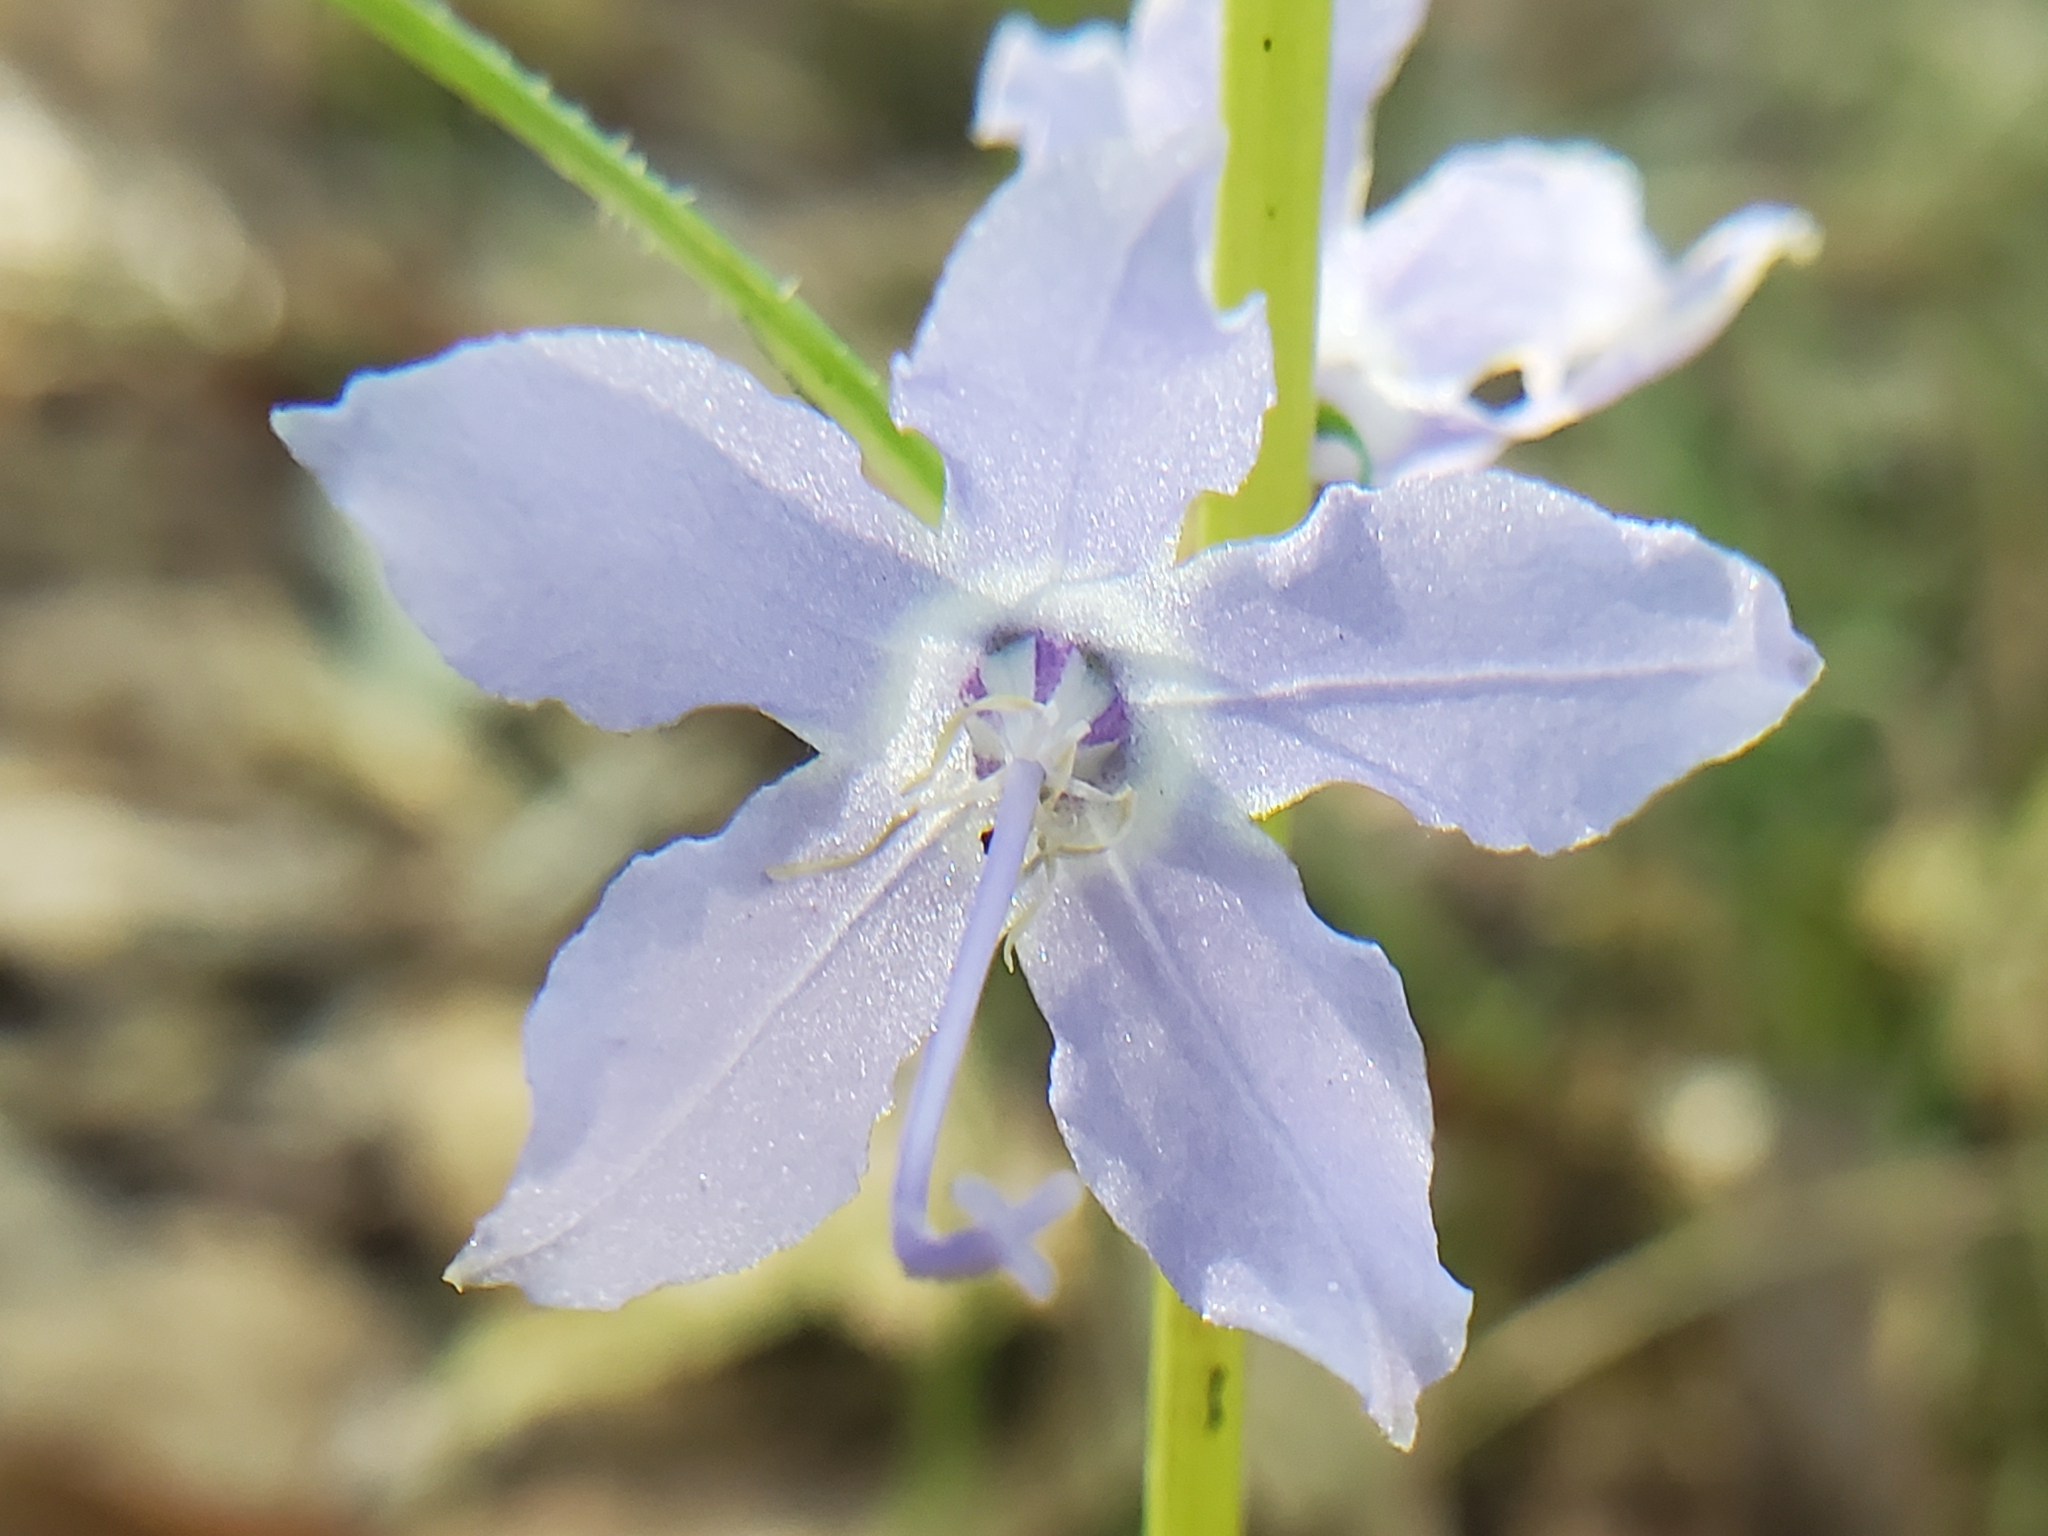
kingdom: Plantae
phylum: Tracheophyta
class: Magnoliopsida
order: Asterales
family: Campanulaceae
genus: Campanulastrum
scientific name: Campanulastrum americanum
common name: American bellflower
